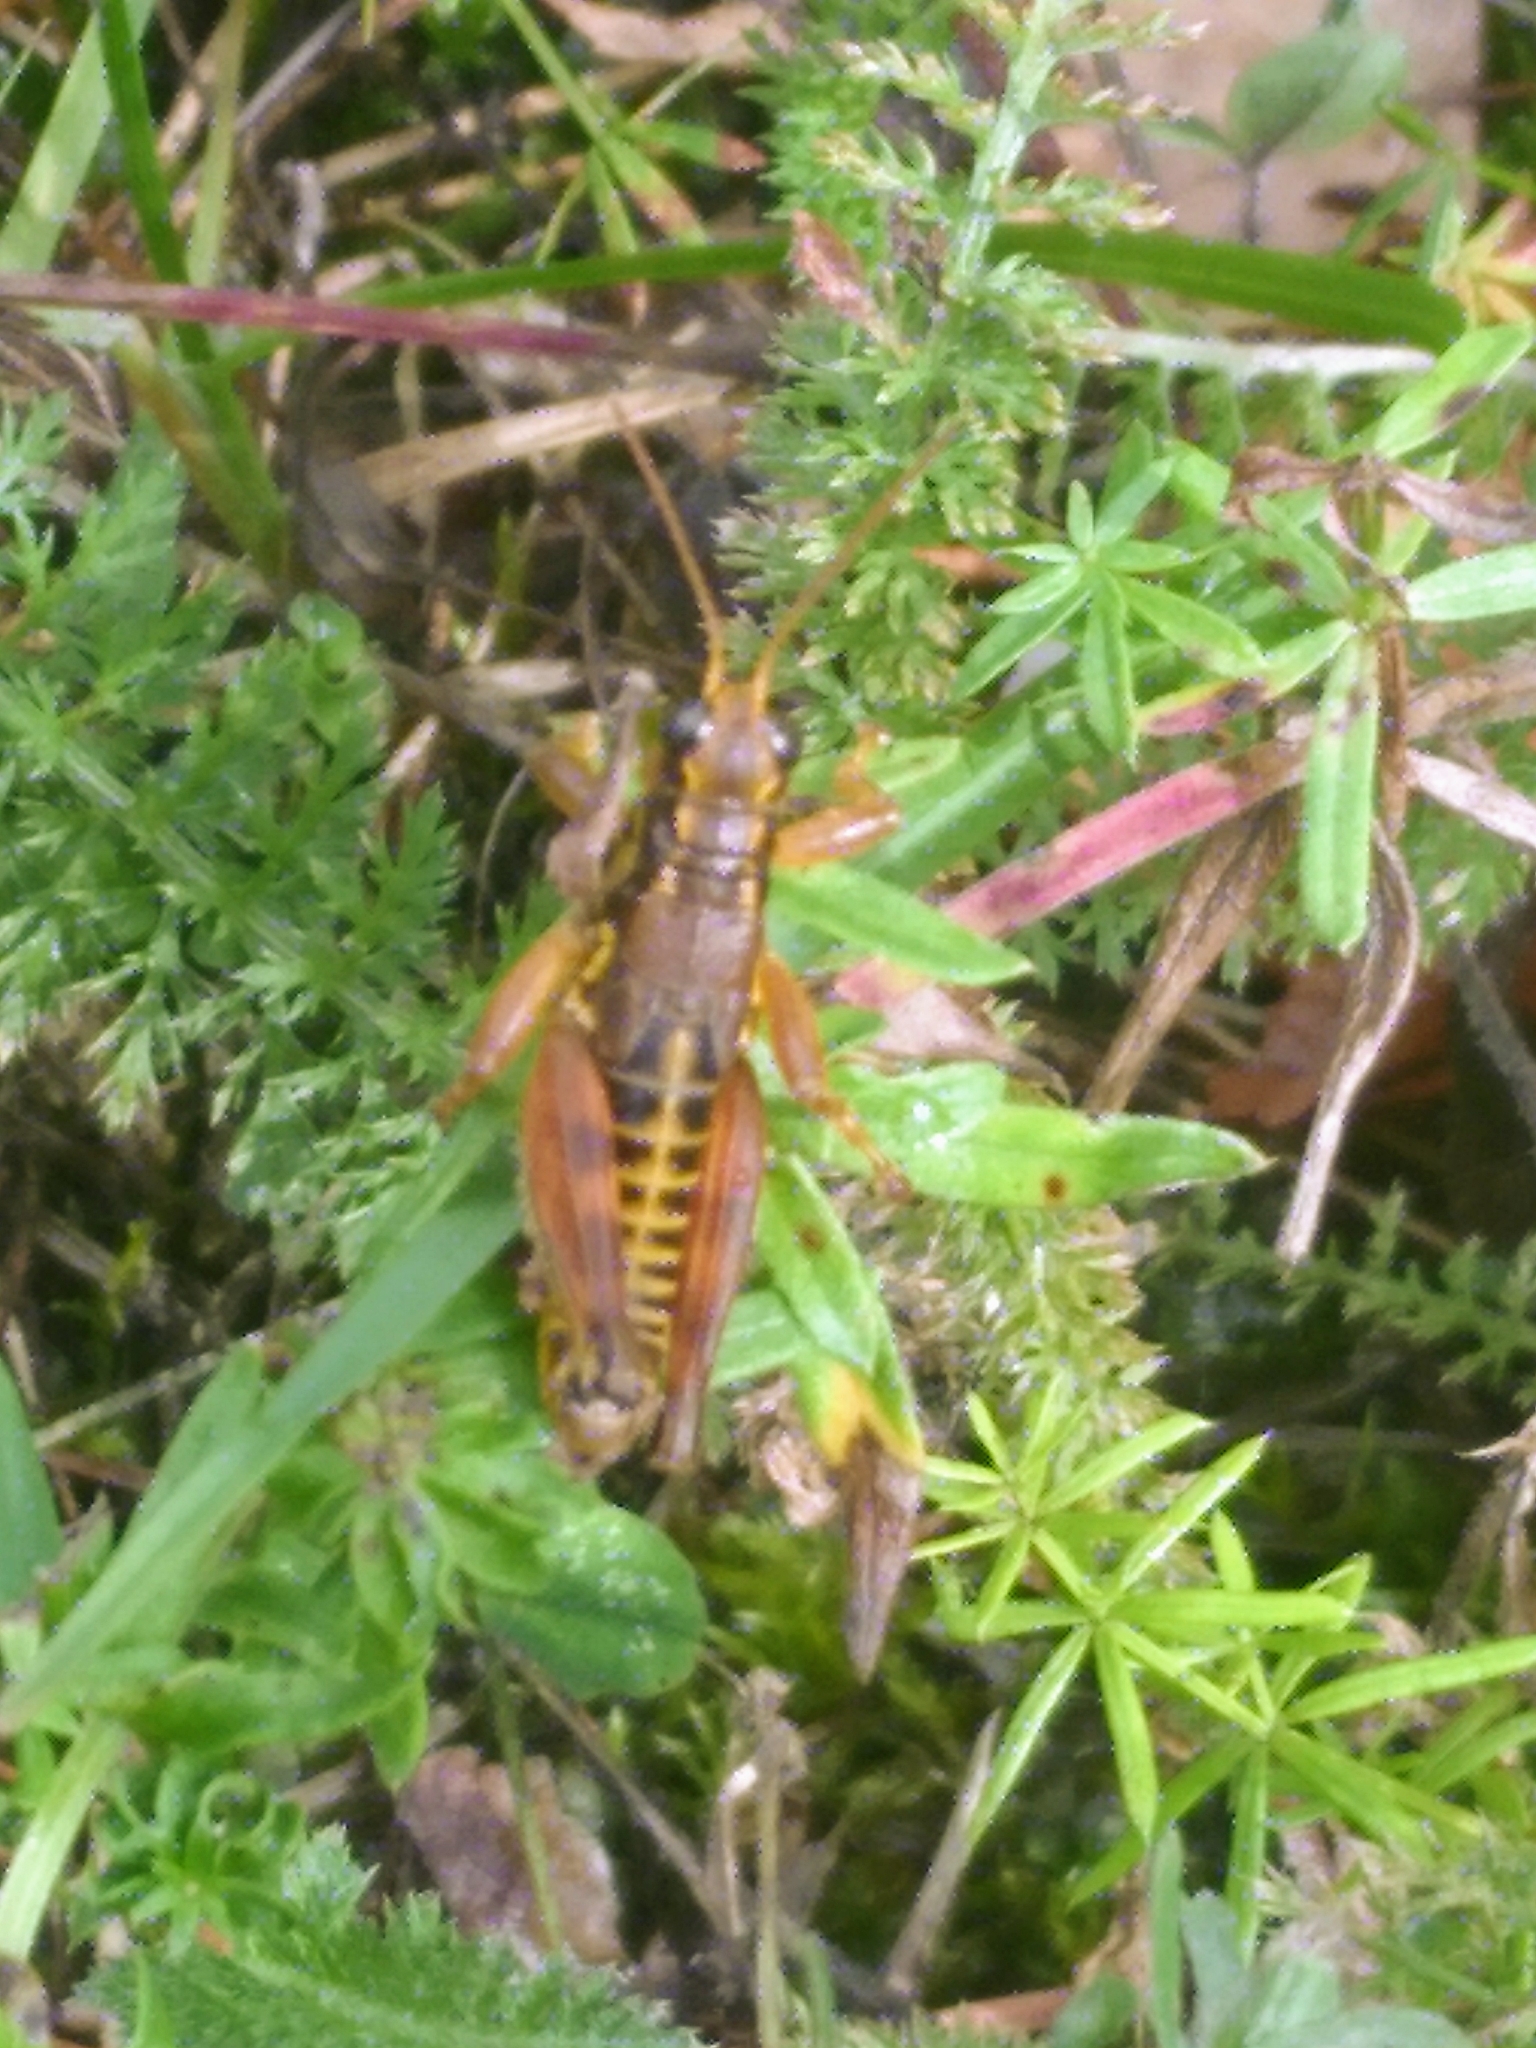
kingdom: Animalia
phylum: Arthropoda
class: Insecta
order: Orthoptera
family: Acrididae
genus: Podisma
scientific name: Podisma pedestris
